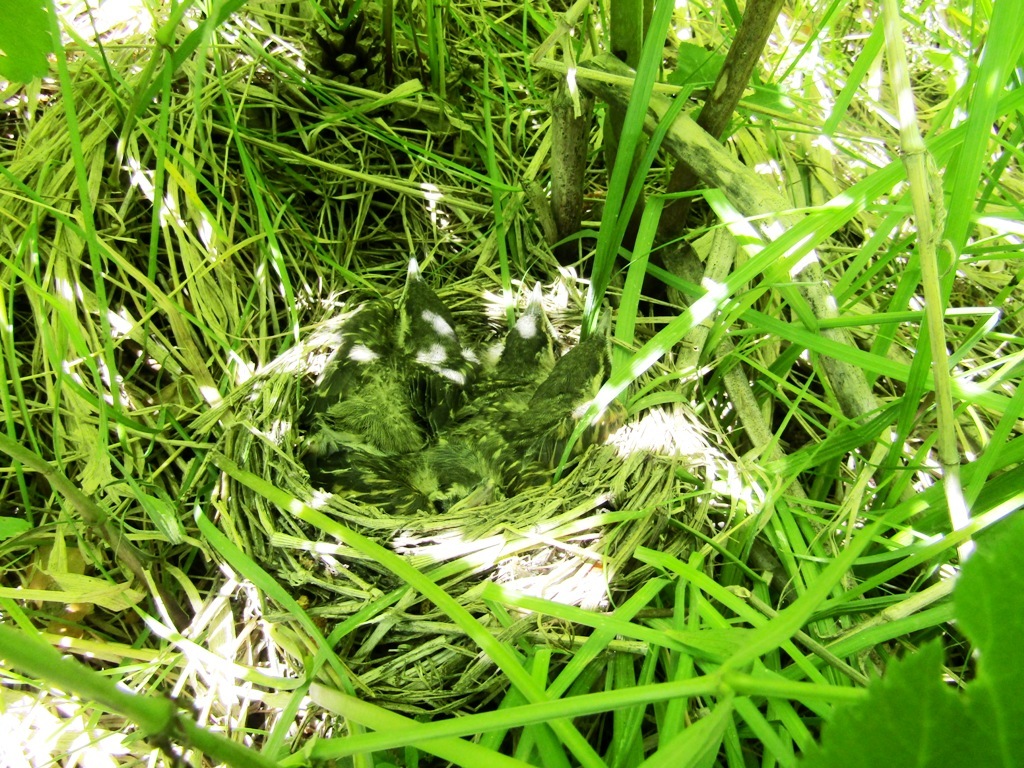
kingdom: Animalia
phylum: Chordata
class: Aves
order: Passeriformes
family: Turdidae
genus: Turdus
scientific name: Turdus iliacus
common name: Redwing
